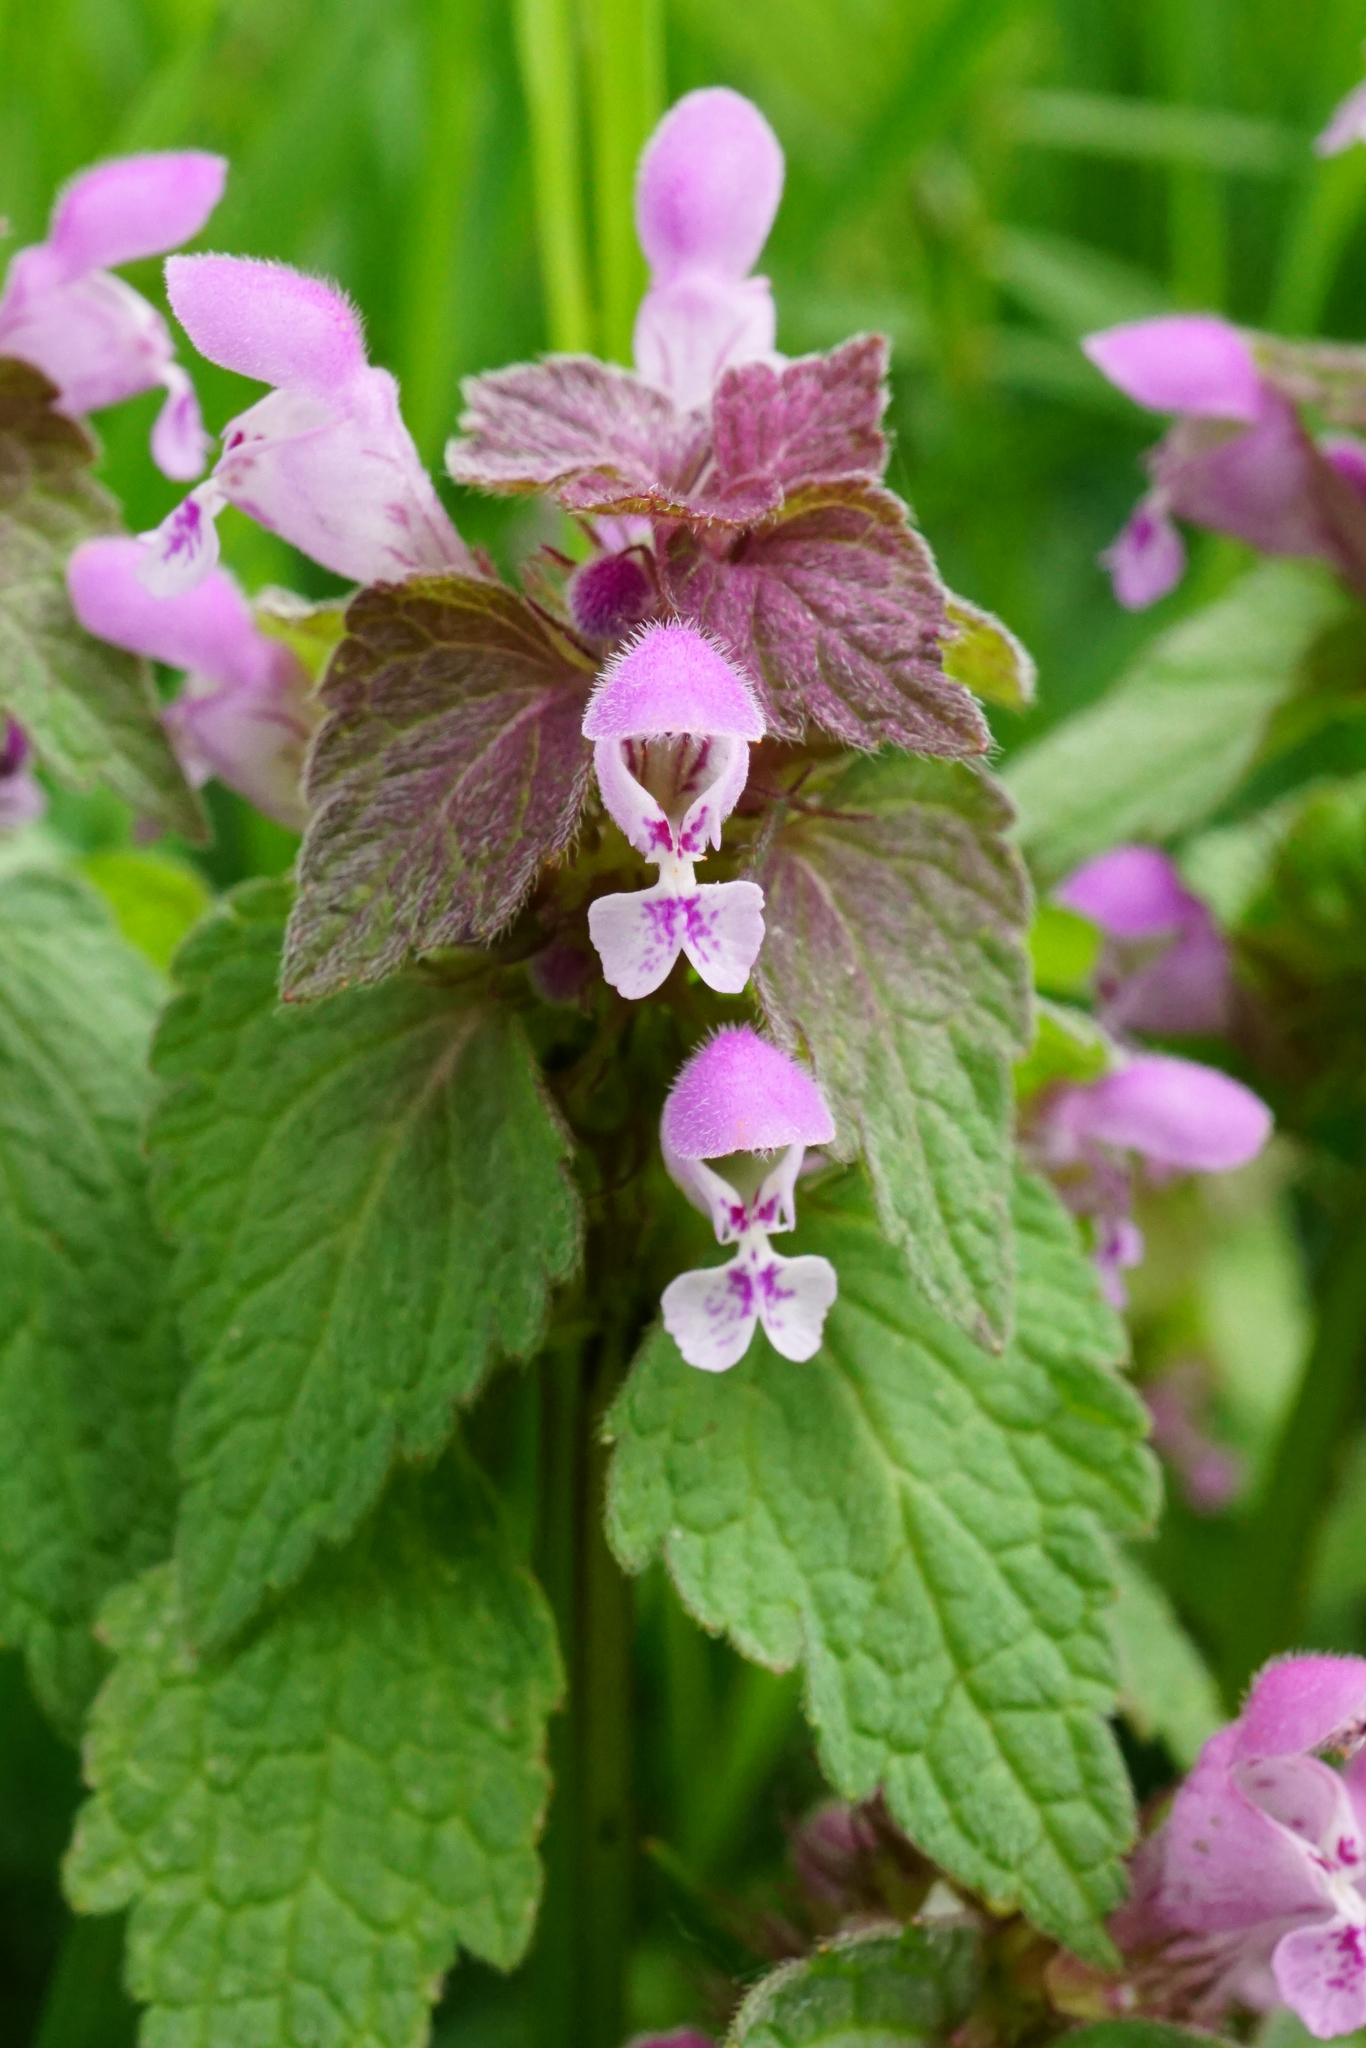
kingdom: Plantae
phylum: Tracheophyta
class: Magnoliopsida
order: Lamiales
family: Lamiaceae
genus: Lamium
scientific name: Lamium purpureum
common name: Red dead-nettle
